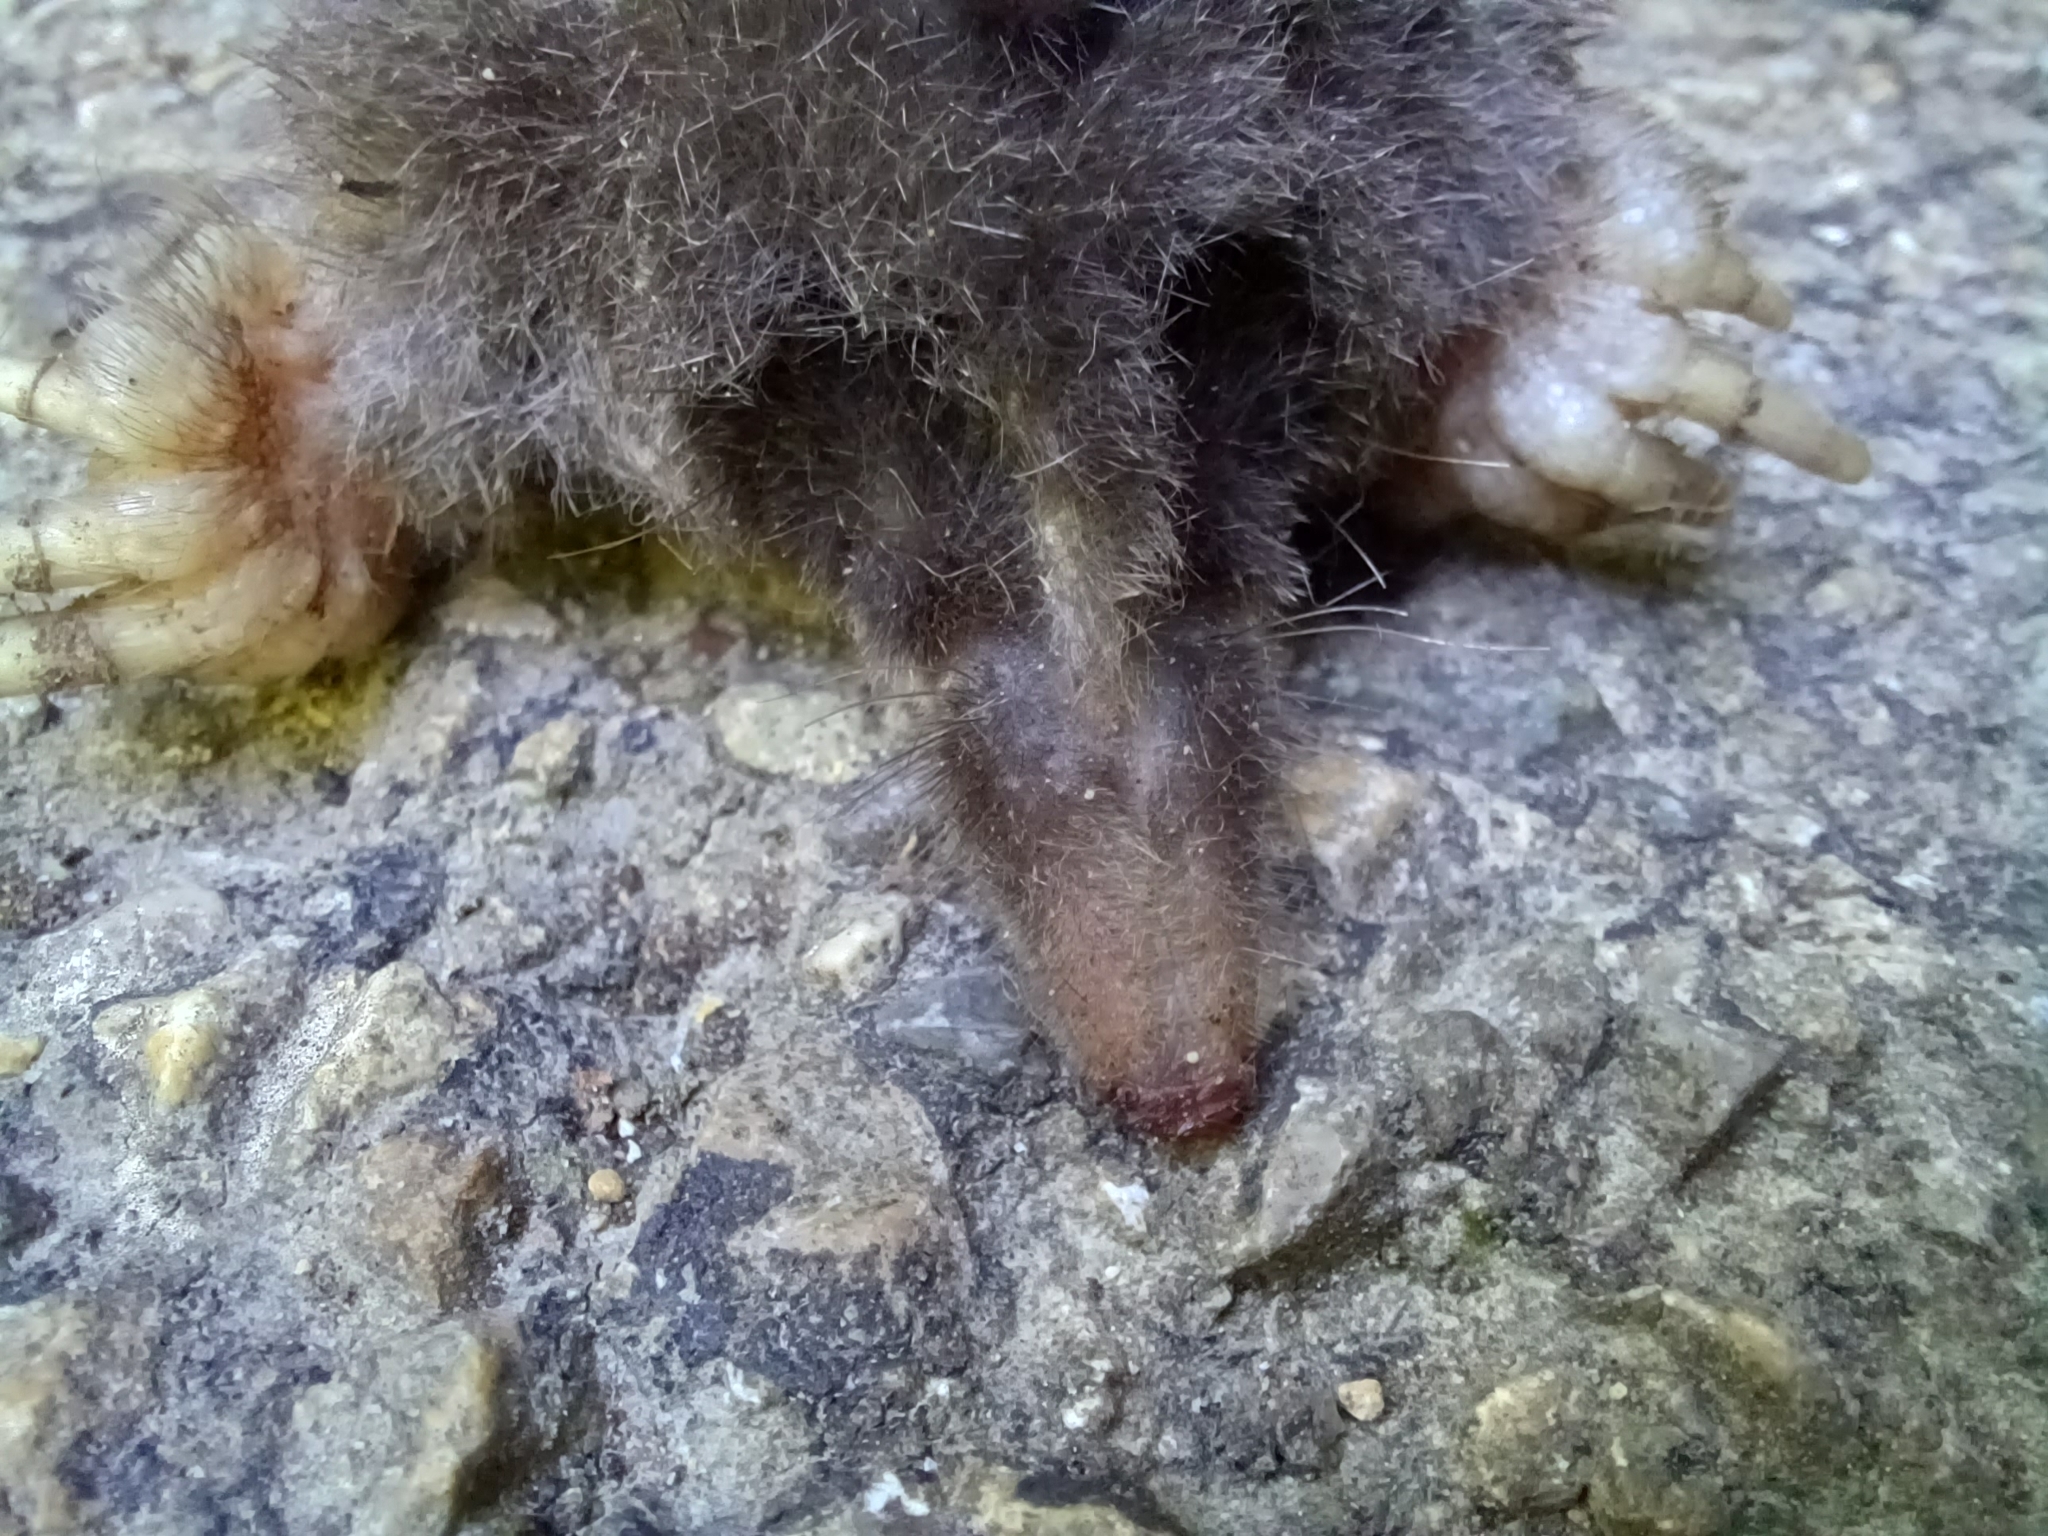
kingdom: Animalia
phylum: Chordata
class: Mammalia
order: Soricomorpha
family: Talpidae
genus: Talpa
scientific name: Talpa europaea
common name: European mole
